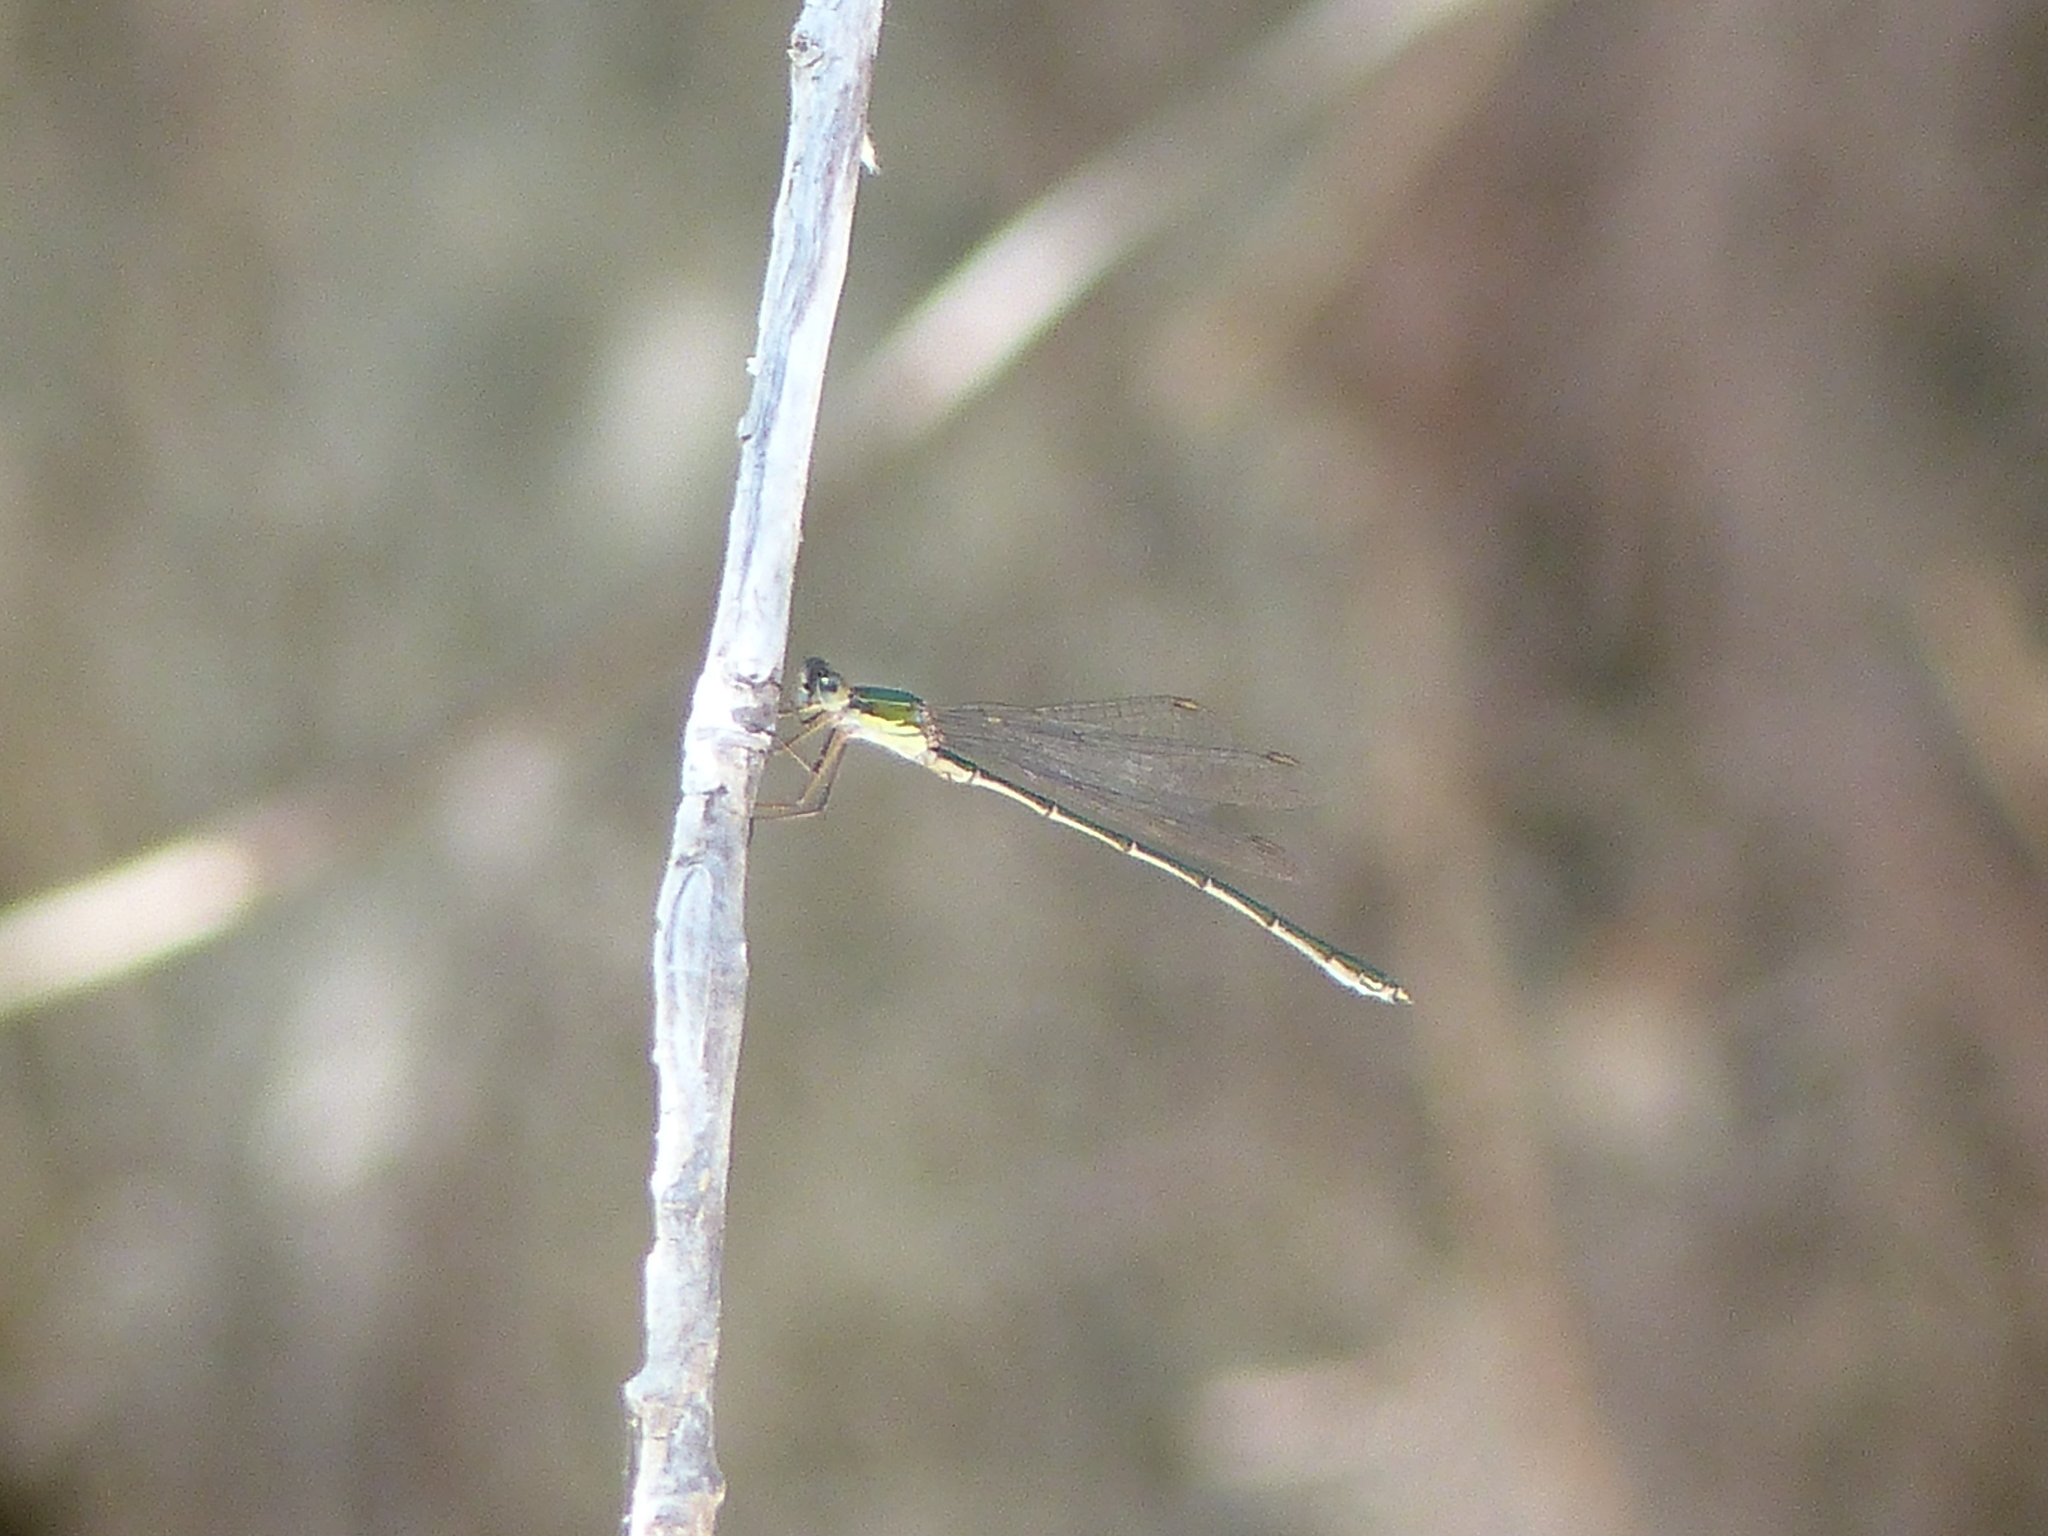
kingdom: Animalia
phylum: Arthropoda
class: Insecta
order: Odonata
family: Lestidae
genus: Chalcolestes
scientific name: Chalcolestes viridis
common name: Green emerald damselfly
